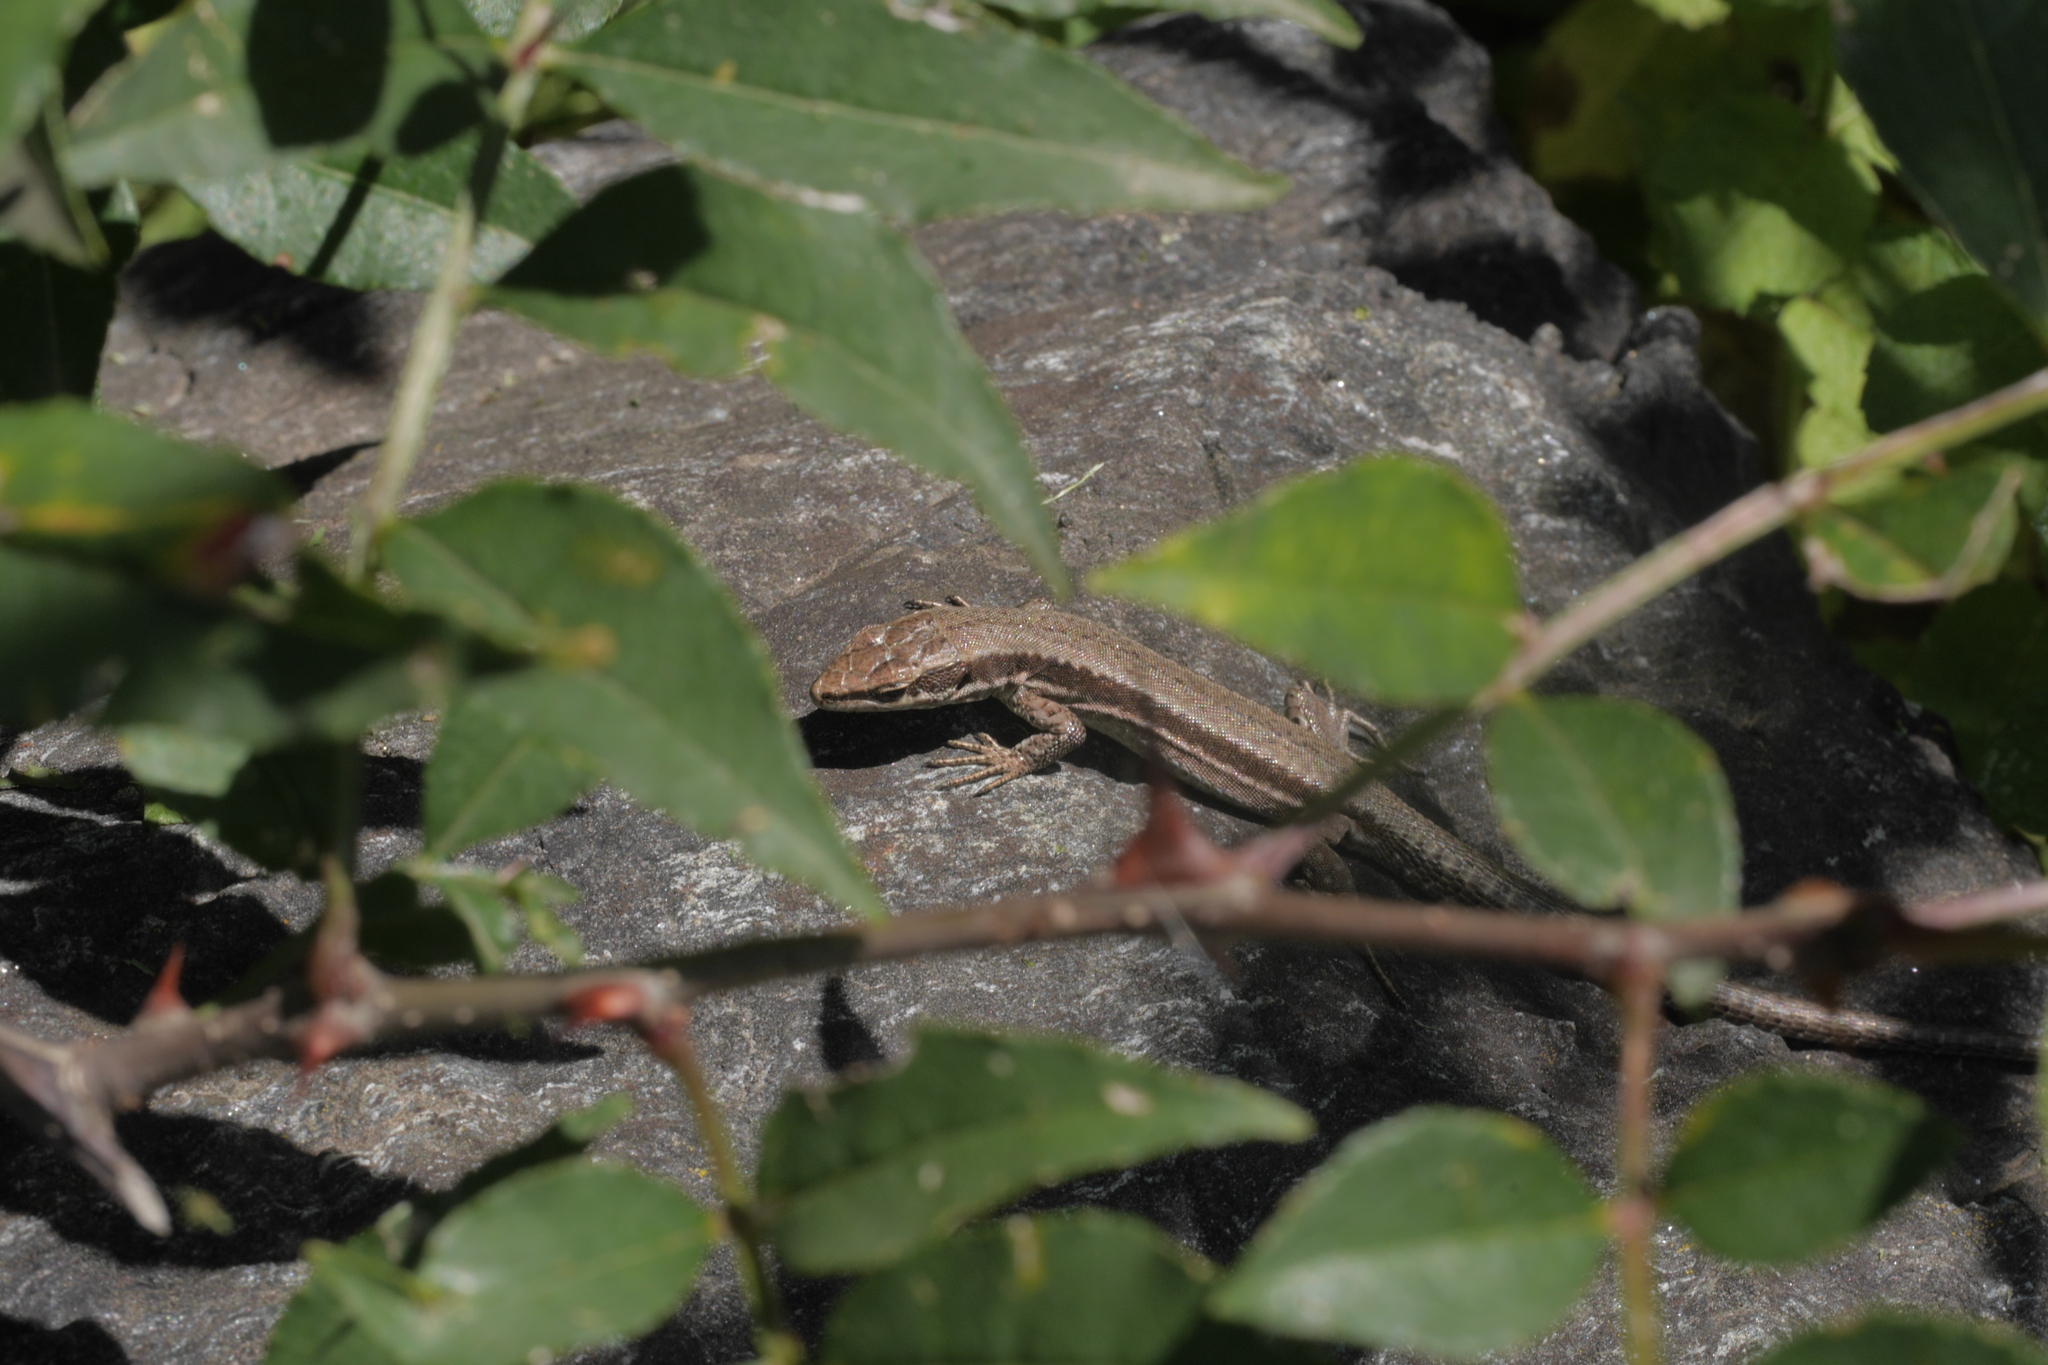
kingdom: Animalia
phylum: Chordata
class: Squamata
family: Lacertidae
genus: Podarcis
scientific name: Podarcis muralis
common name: Common wall lizard
